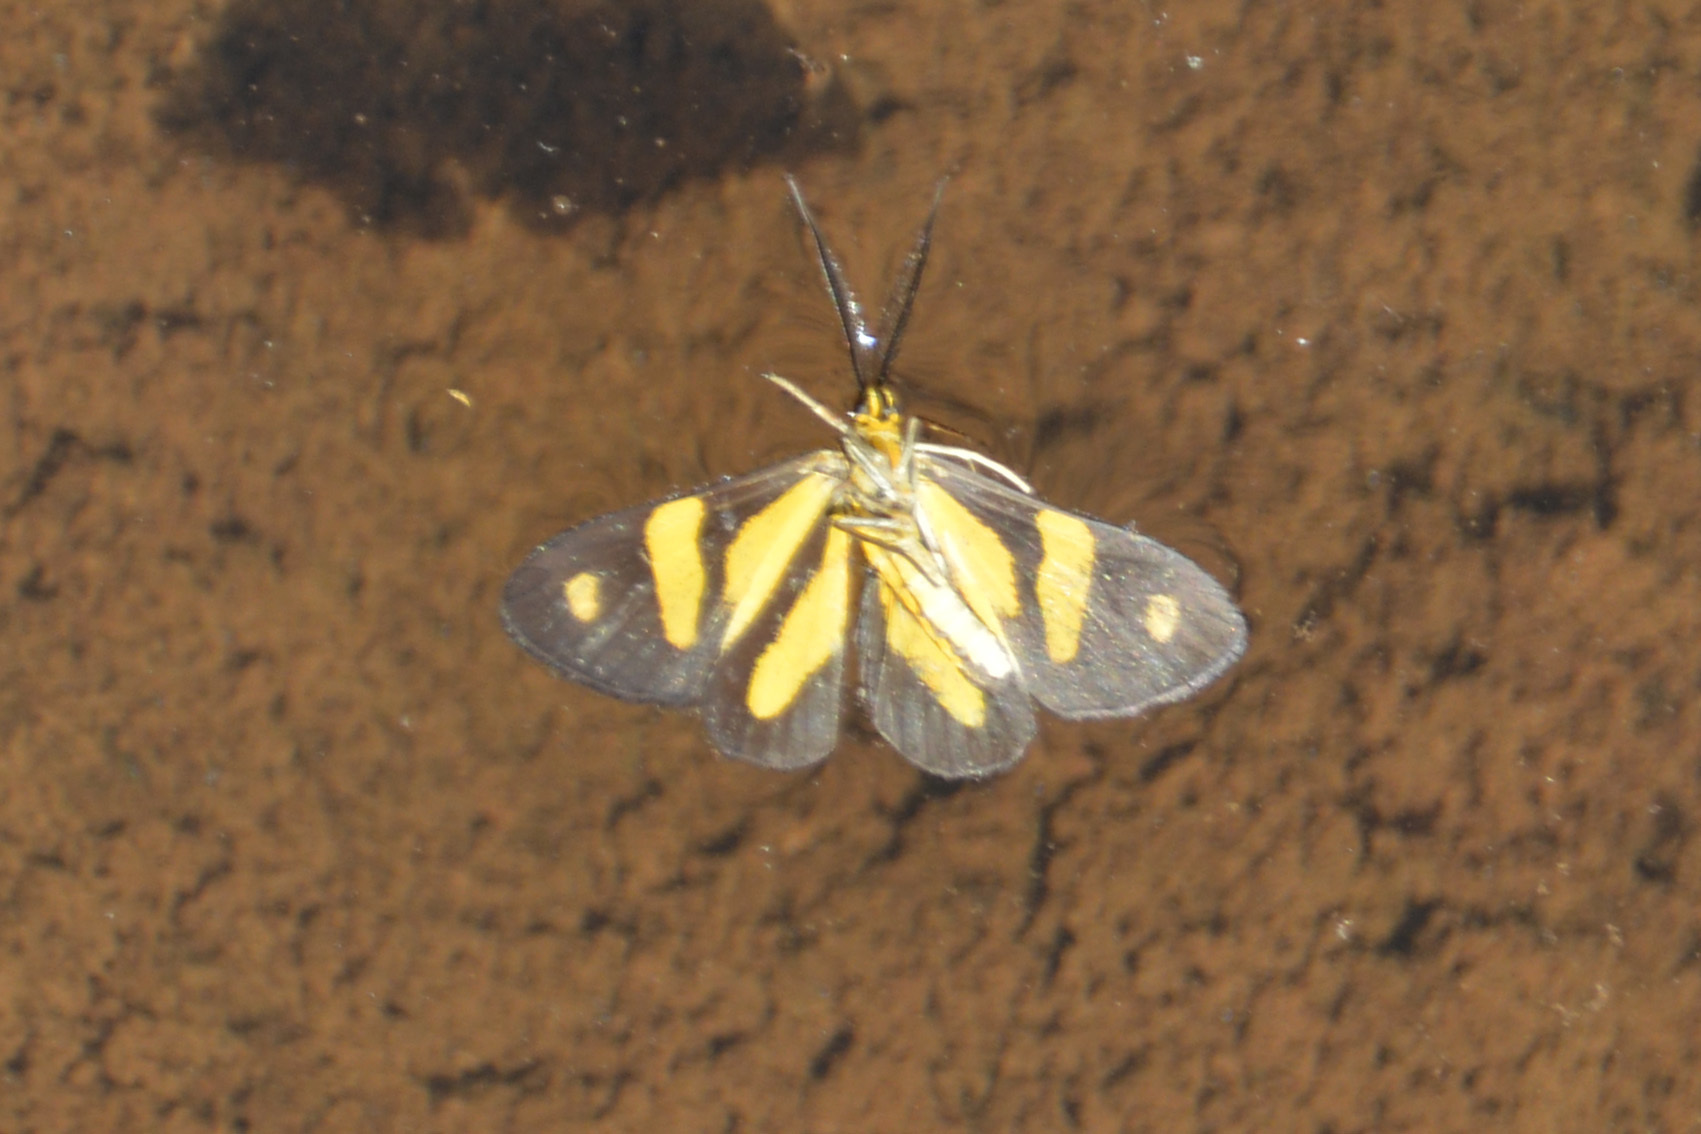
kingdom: Animalia
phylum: Arthropoda
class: Insecta
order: Lepidoptera
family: Notodontidae
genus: Phaeochlaena
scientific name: Phaeochlaena
